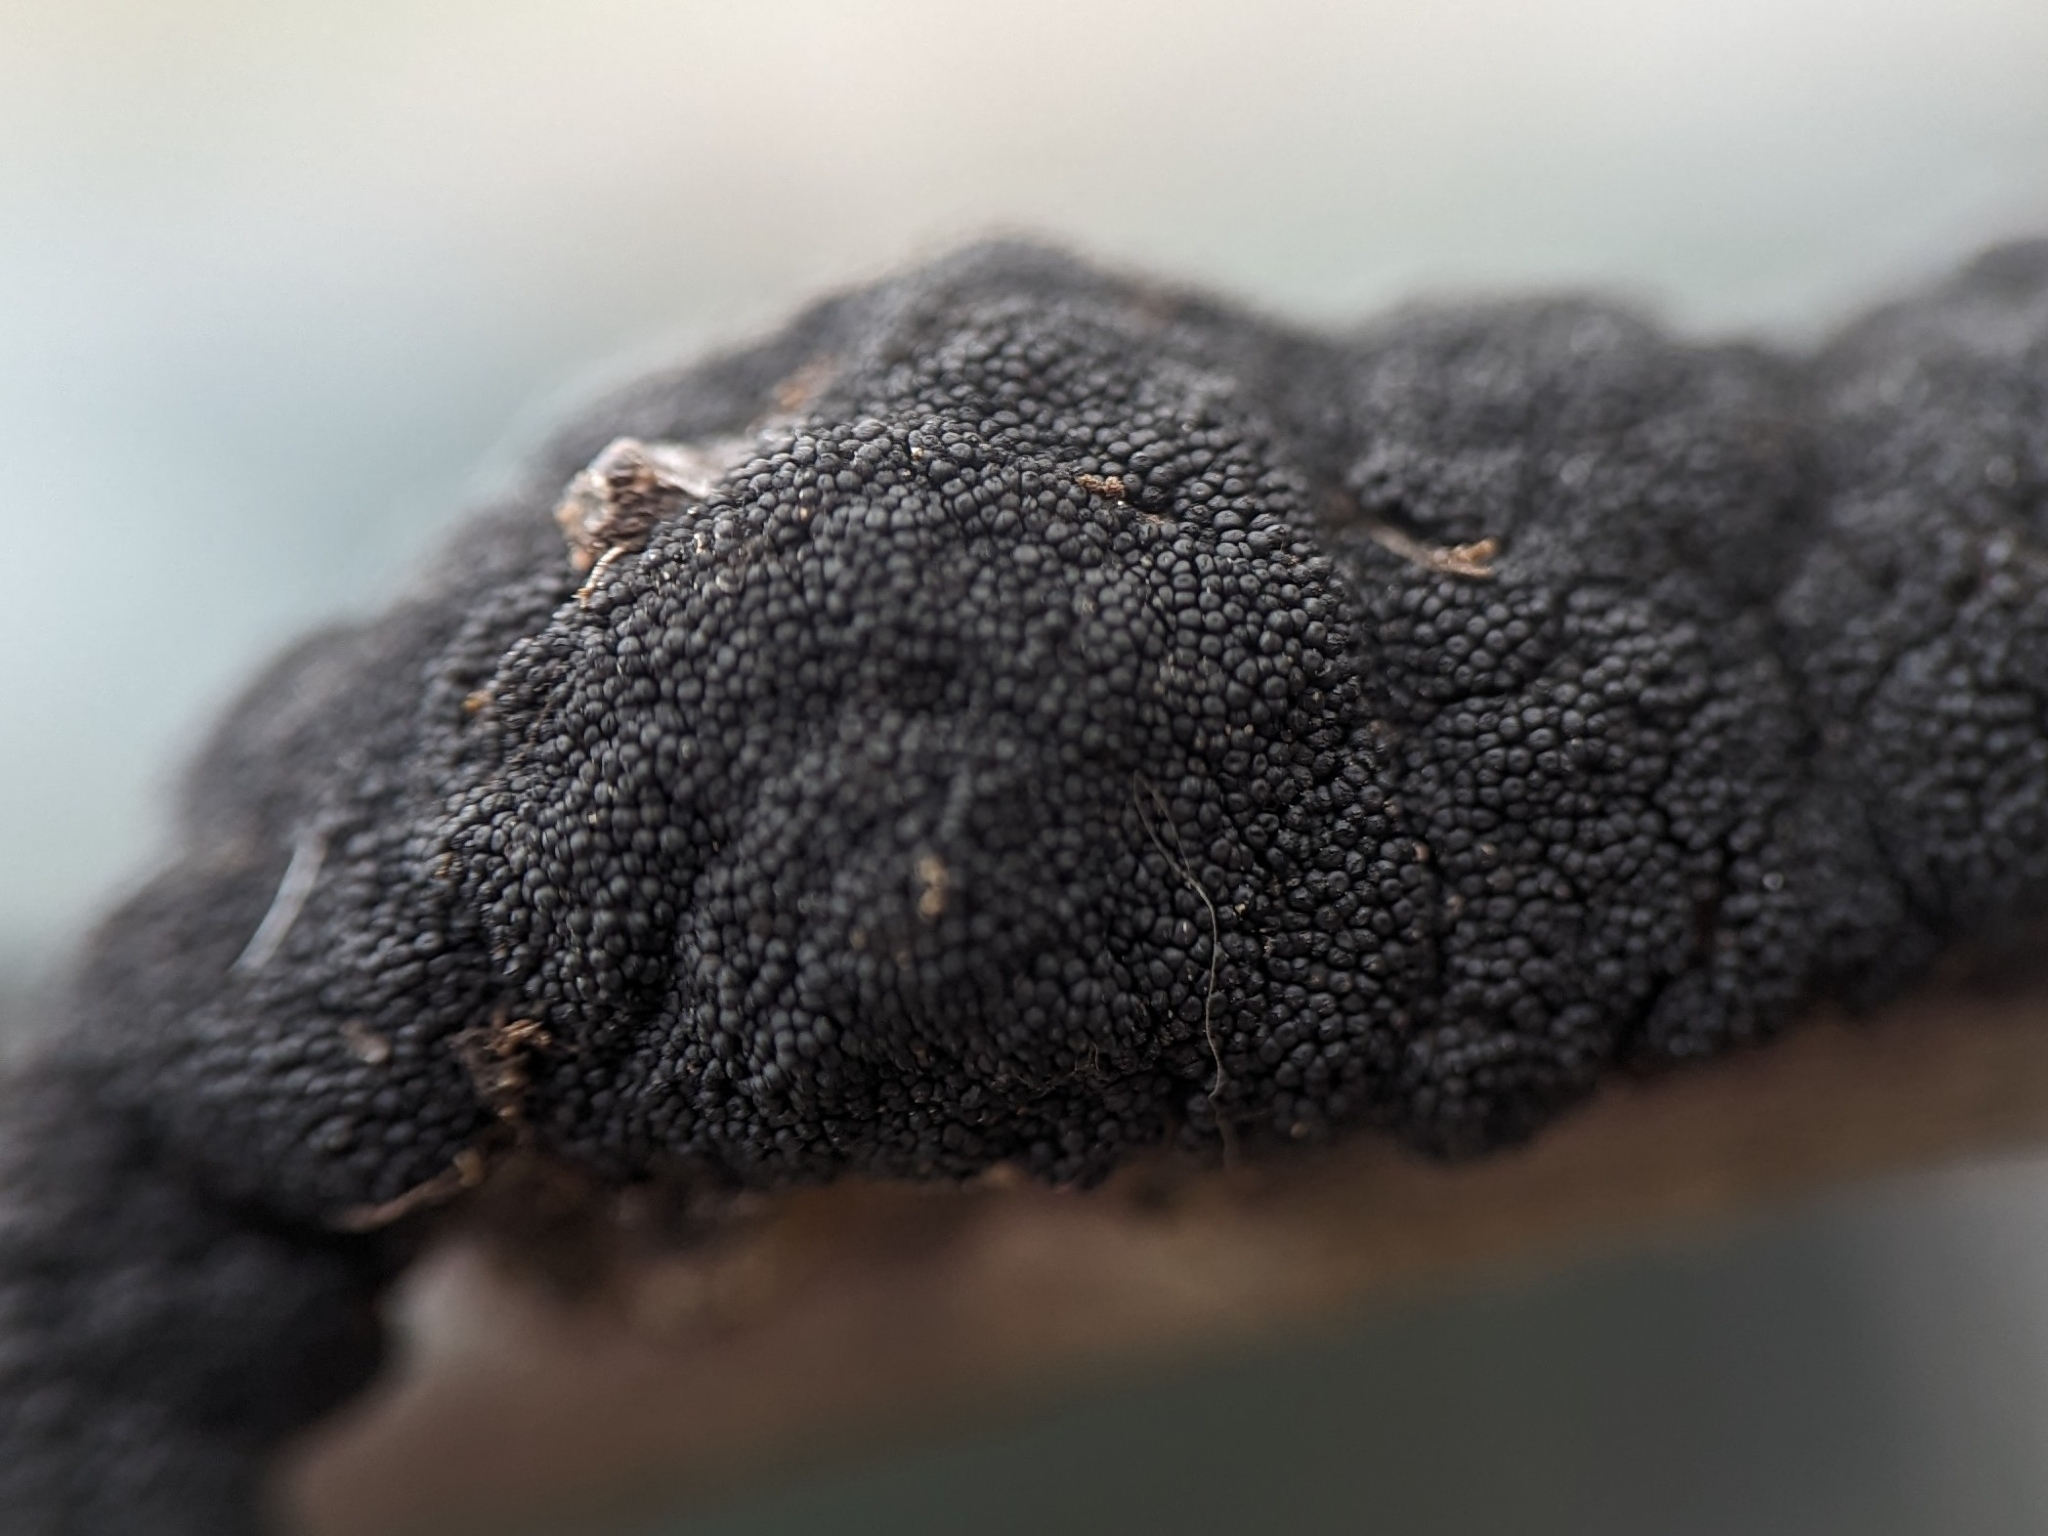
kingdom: Fungi
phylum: Ascomycota
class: Dothideomycetes
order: Venturiales
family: Venturiaceae
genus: Apiosporina
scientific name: Apiosporina morbosa
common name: Black knot
